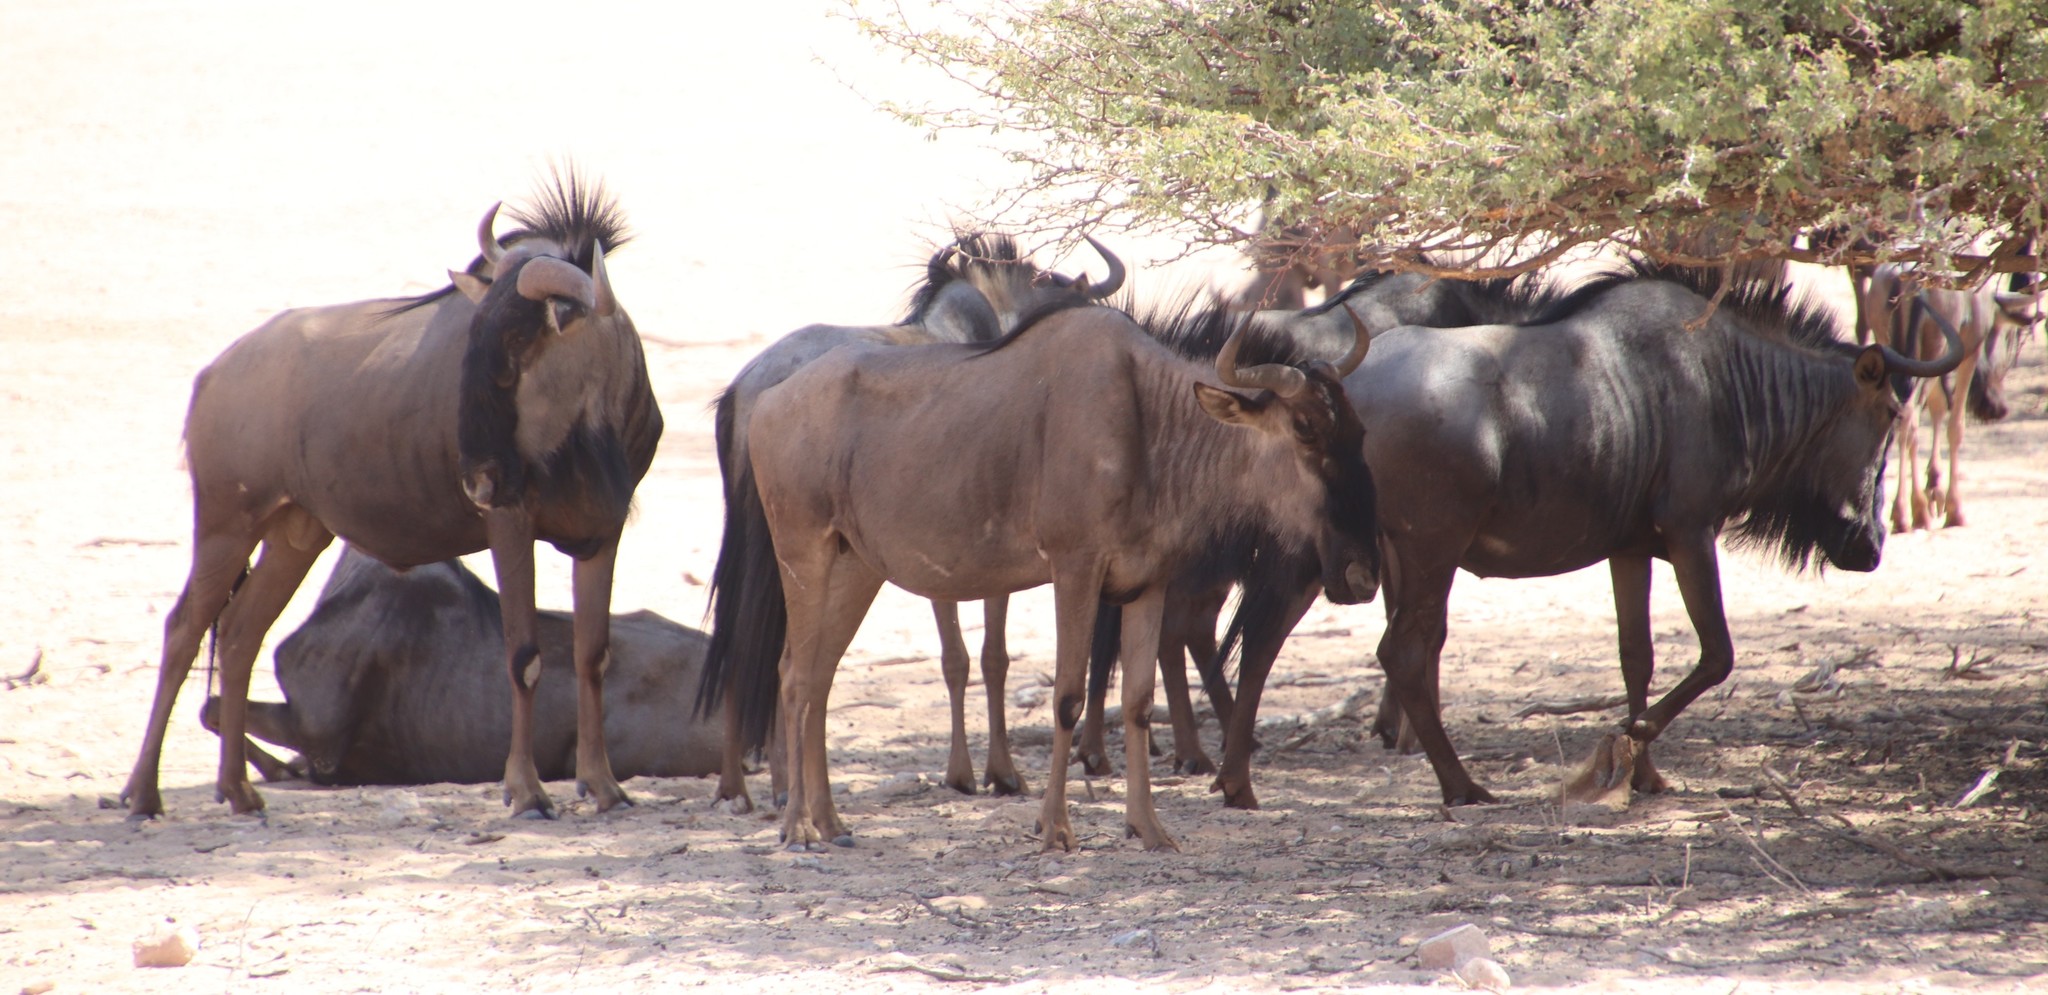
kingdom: Animalia
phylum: Chordata
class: Mammalia
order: Artiodactyla
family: Bovidae
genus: Connochaetes
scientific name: Connochaetes taurinus
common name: Blue wildebeest
